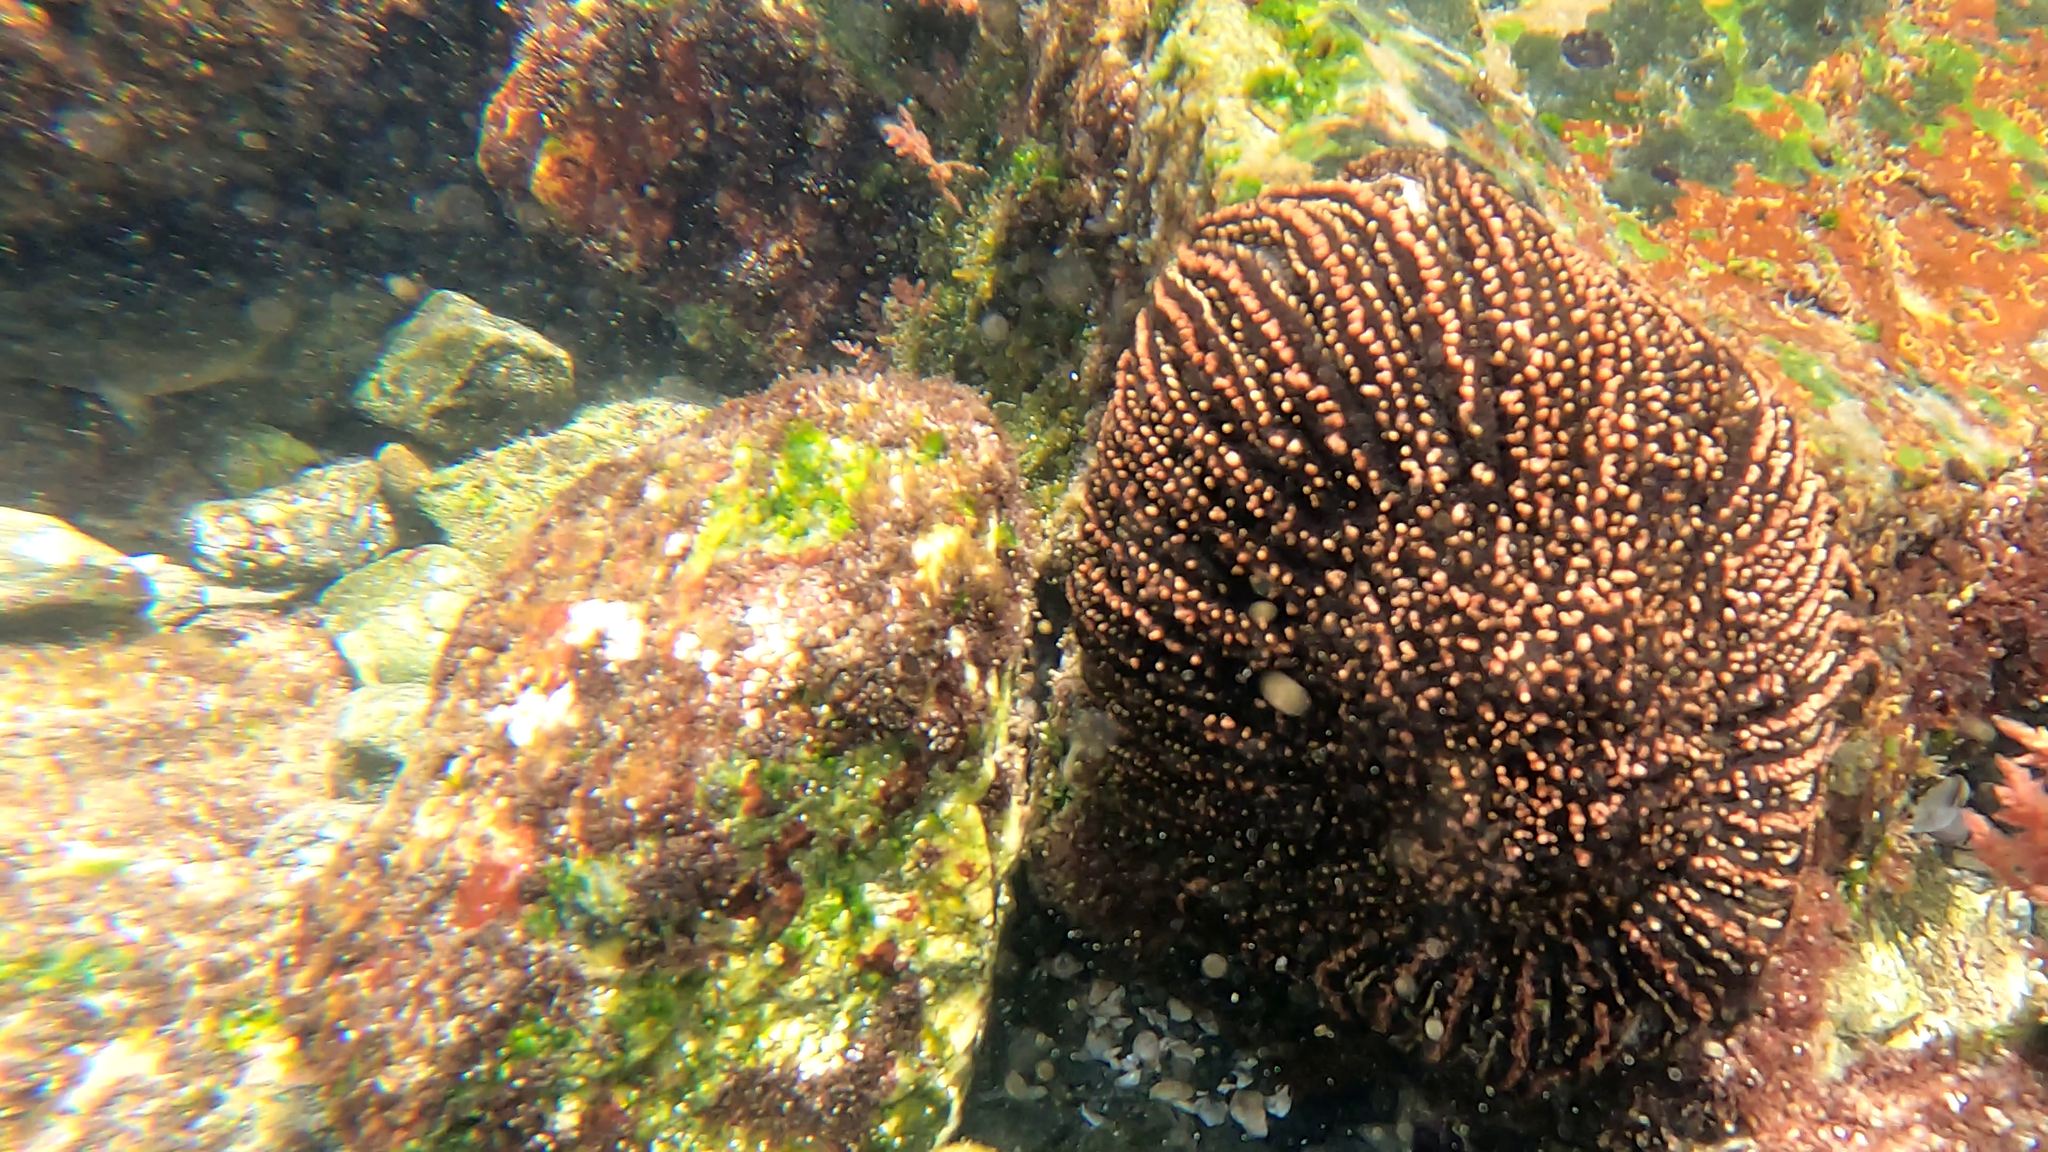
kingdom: Animalia
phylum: Echinodermata
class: Asteroidea
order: Forcipulatida
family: Heliasteridae
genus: Heliaster
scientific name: Heliaster helianthus
